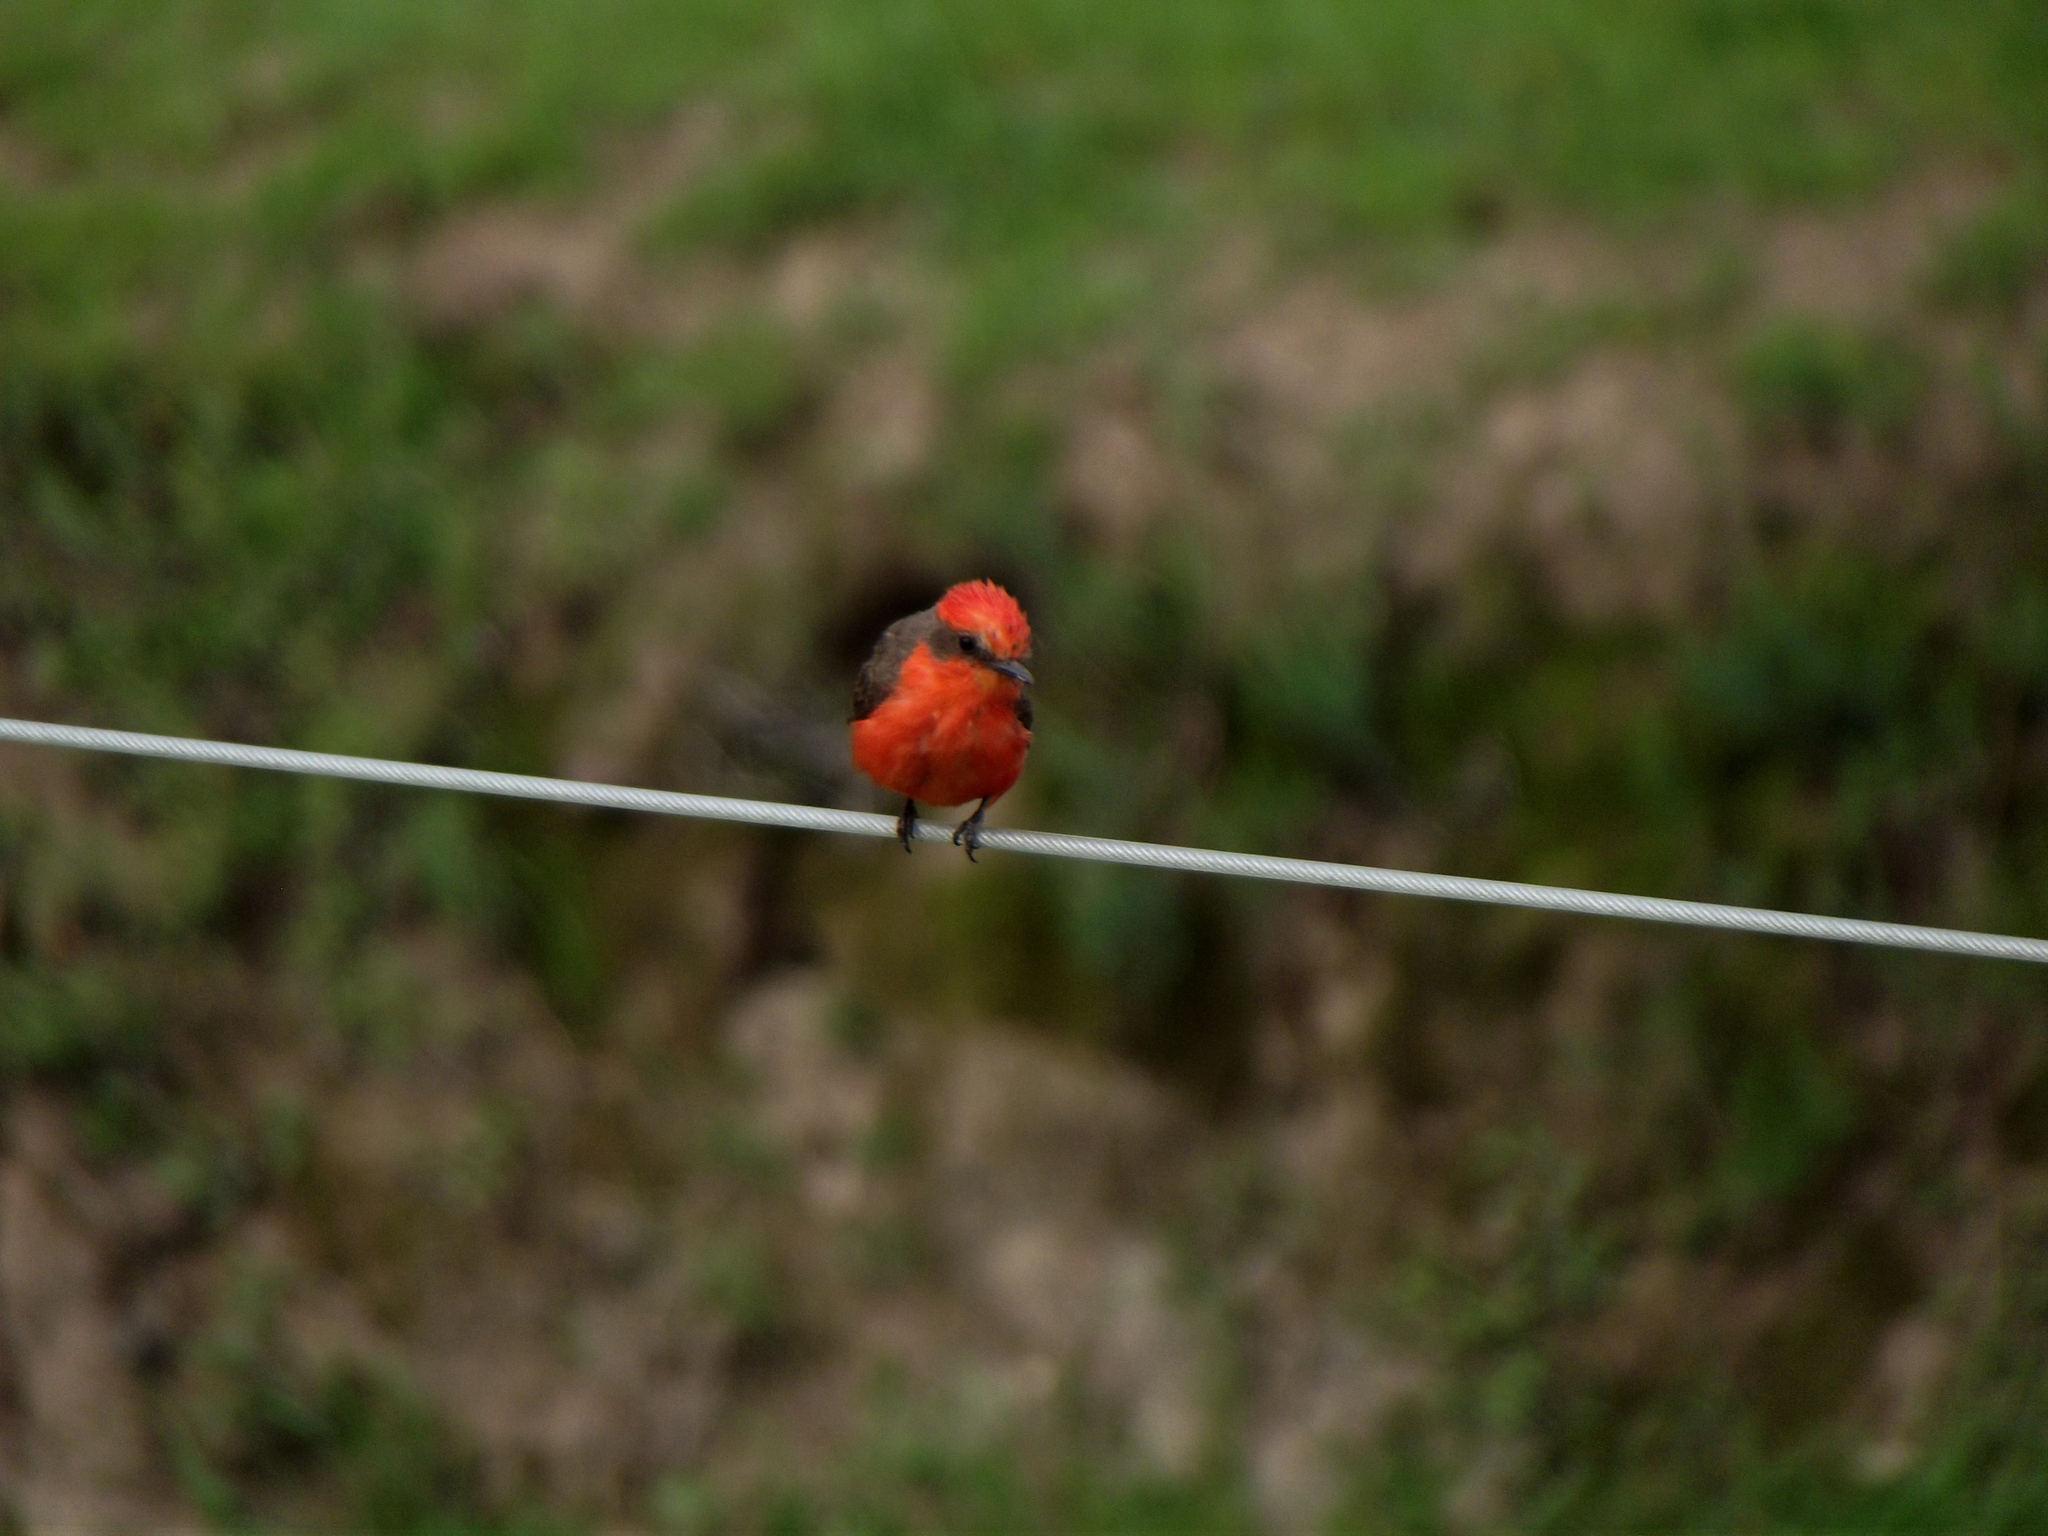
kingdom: Animalia
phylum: Chordata
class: Aves
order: Passeriformes
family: Tyrannidae
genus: Pyrocephalus
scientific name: Pyrocephalus rubinus
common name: Vermilion flycatcher
